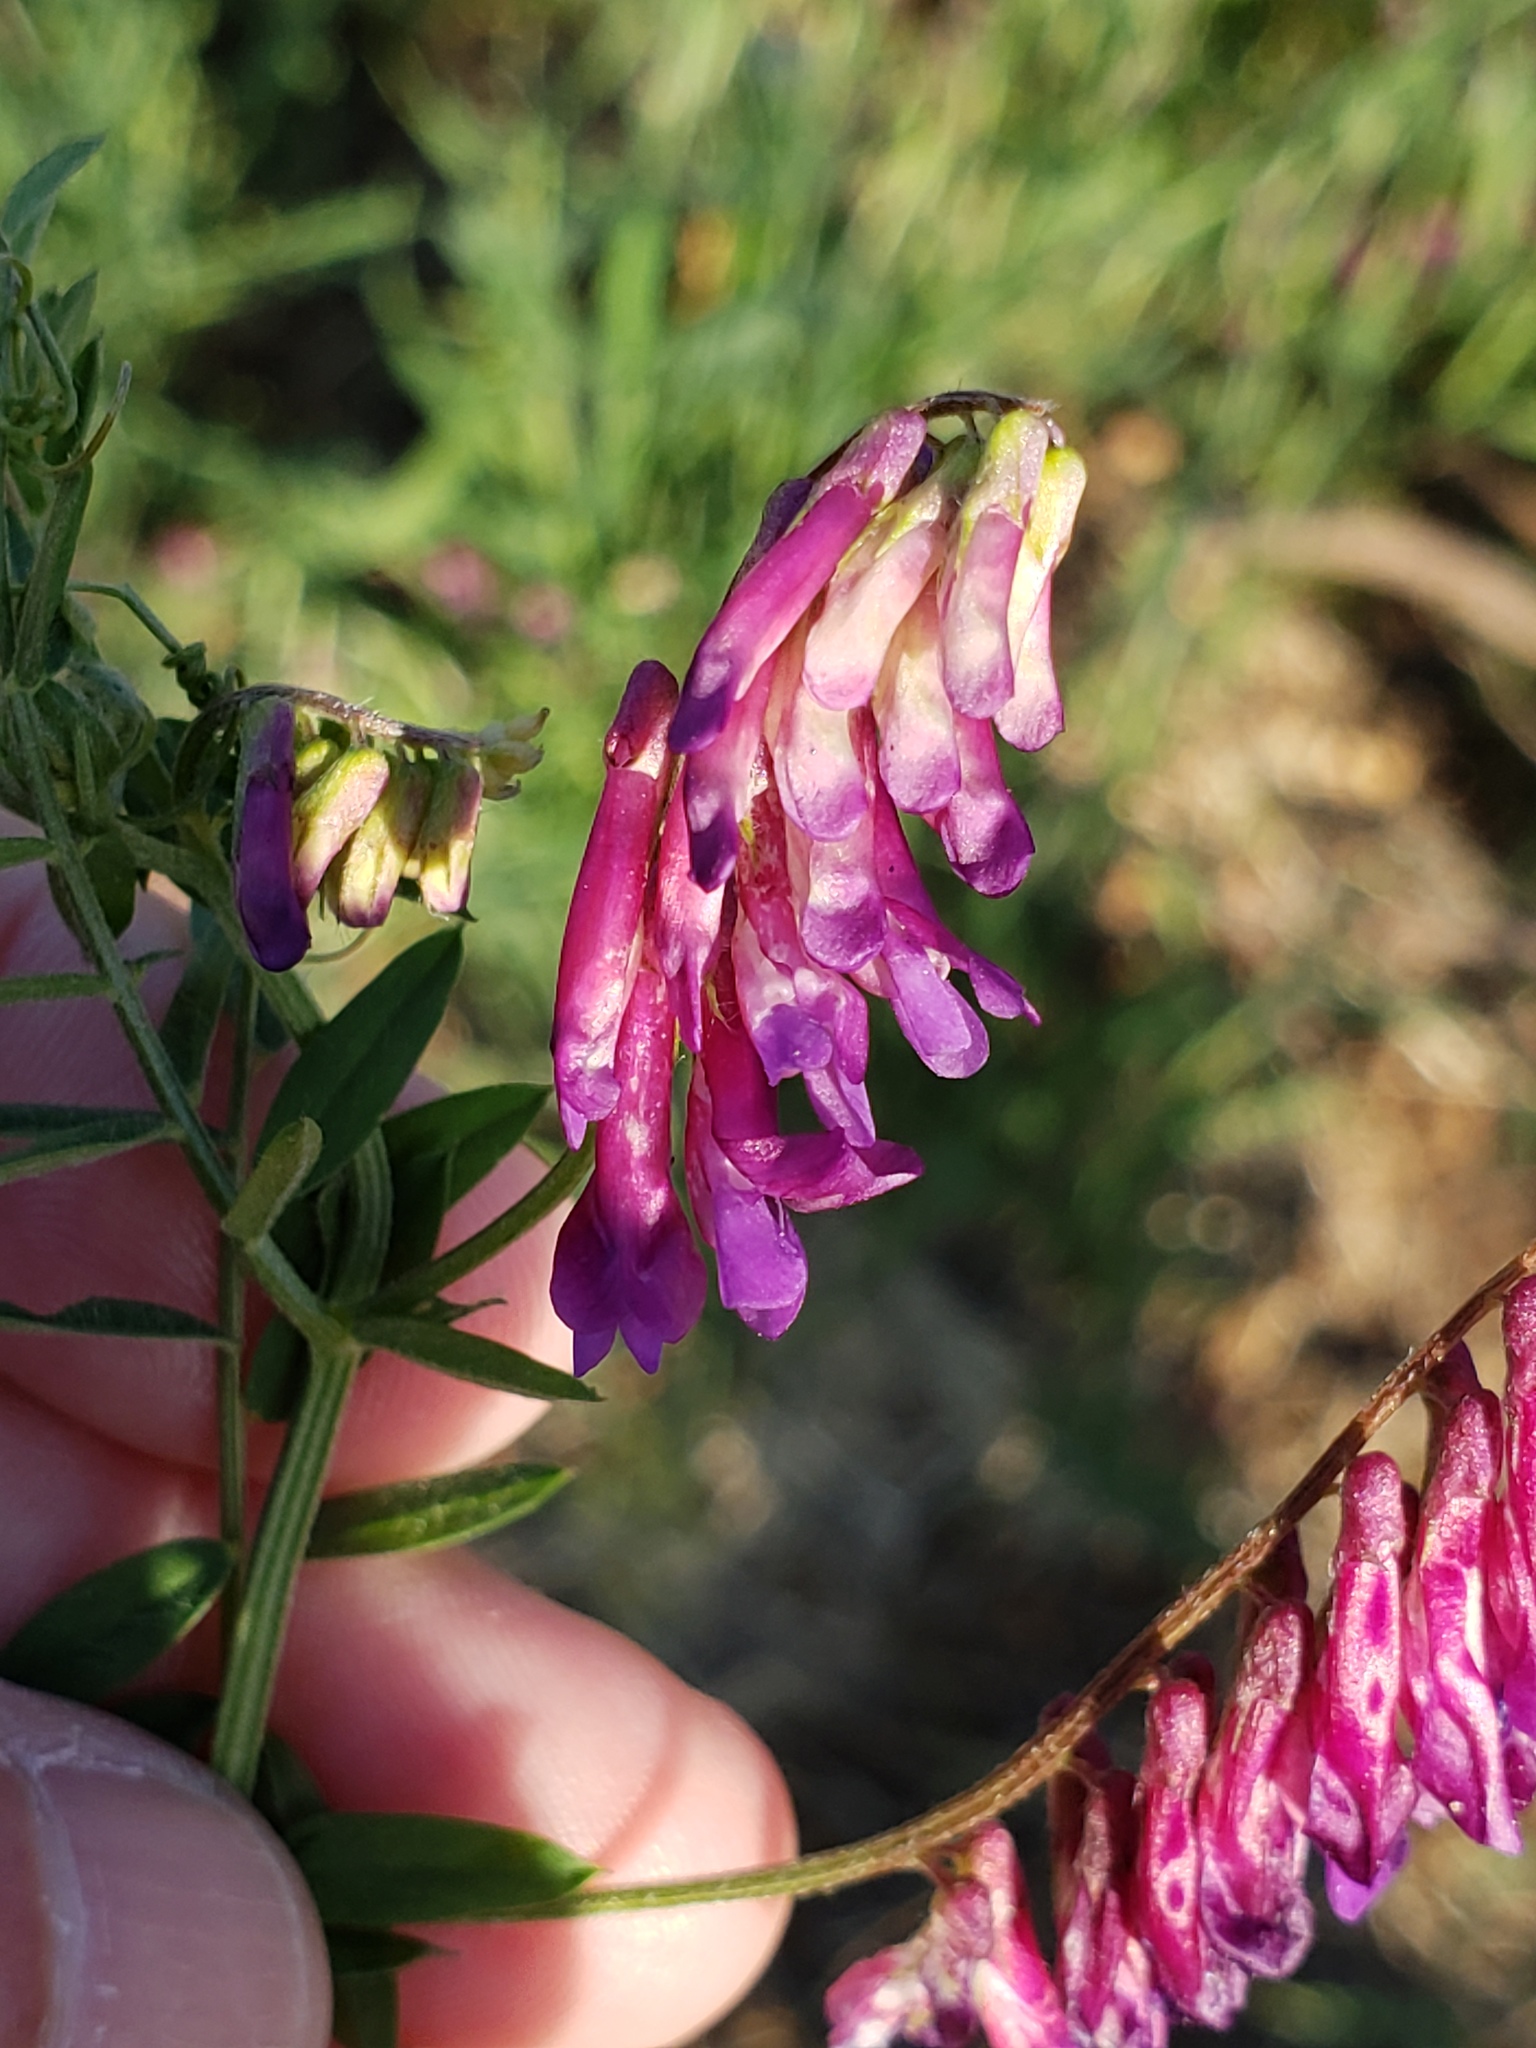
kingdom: Plantae
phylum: Tracheophyta
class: Magnoliopsida
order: Fabales
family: Fabaceae
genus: Vicia
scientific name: Vicia villosa
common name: Fodder vetch
